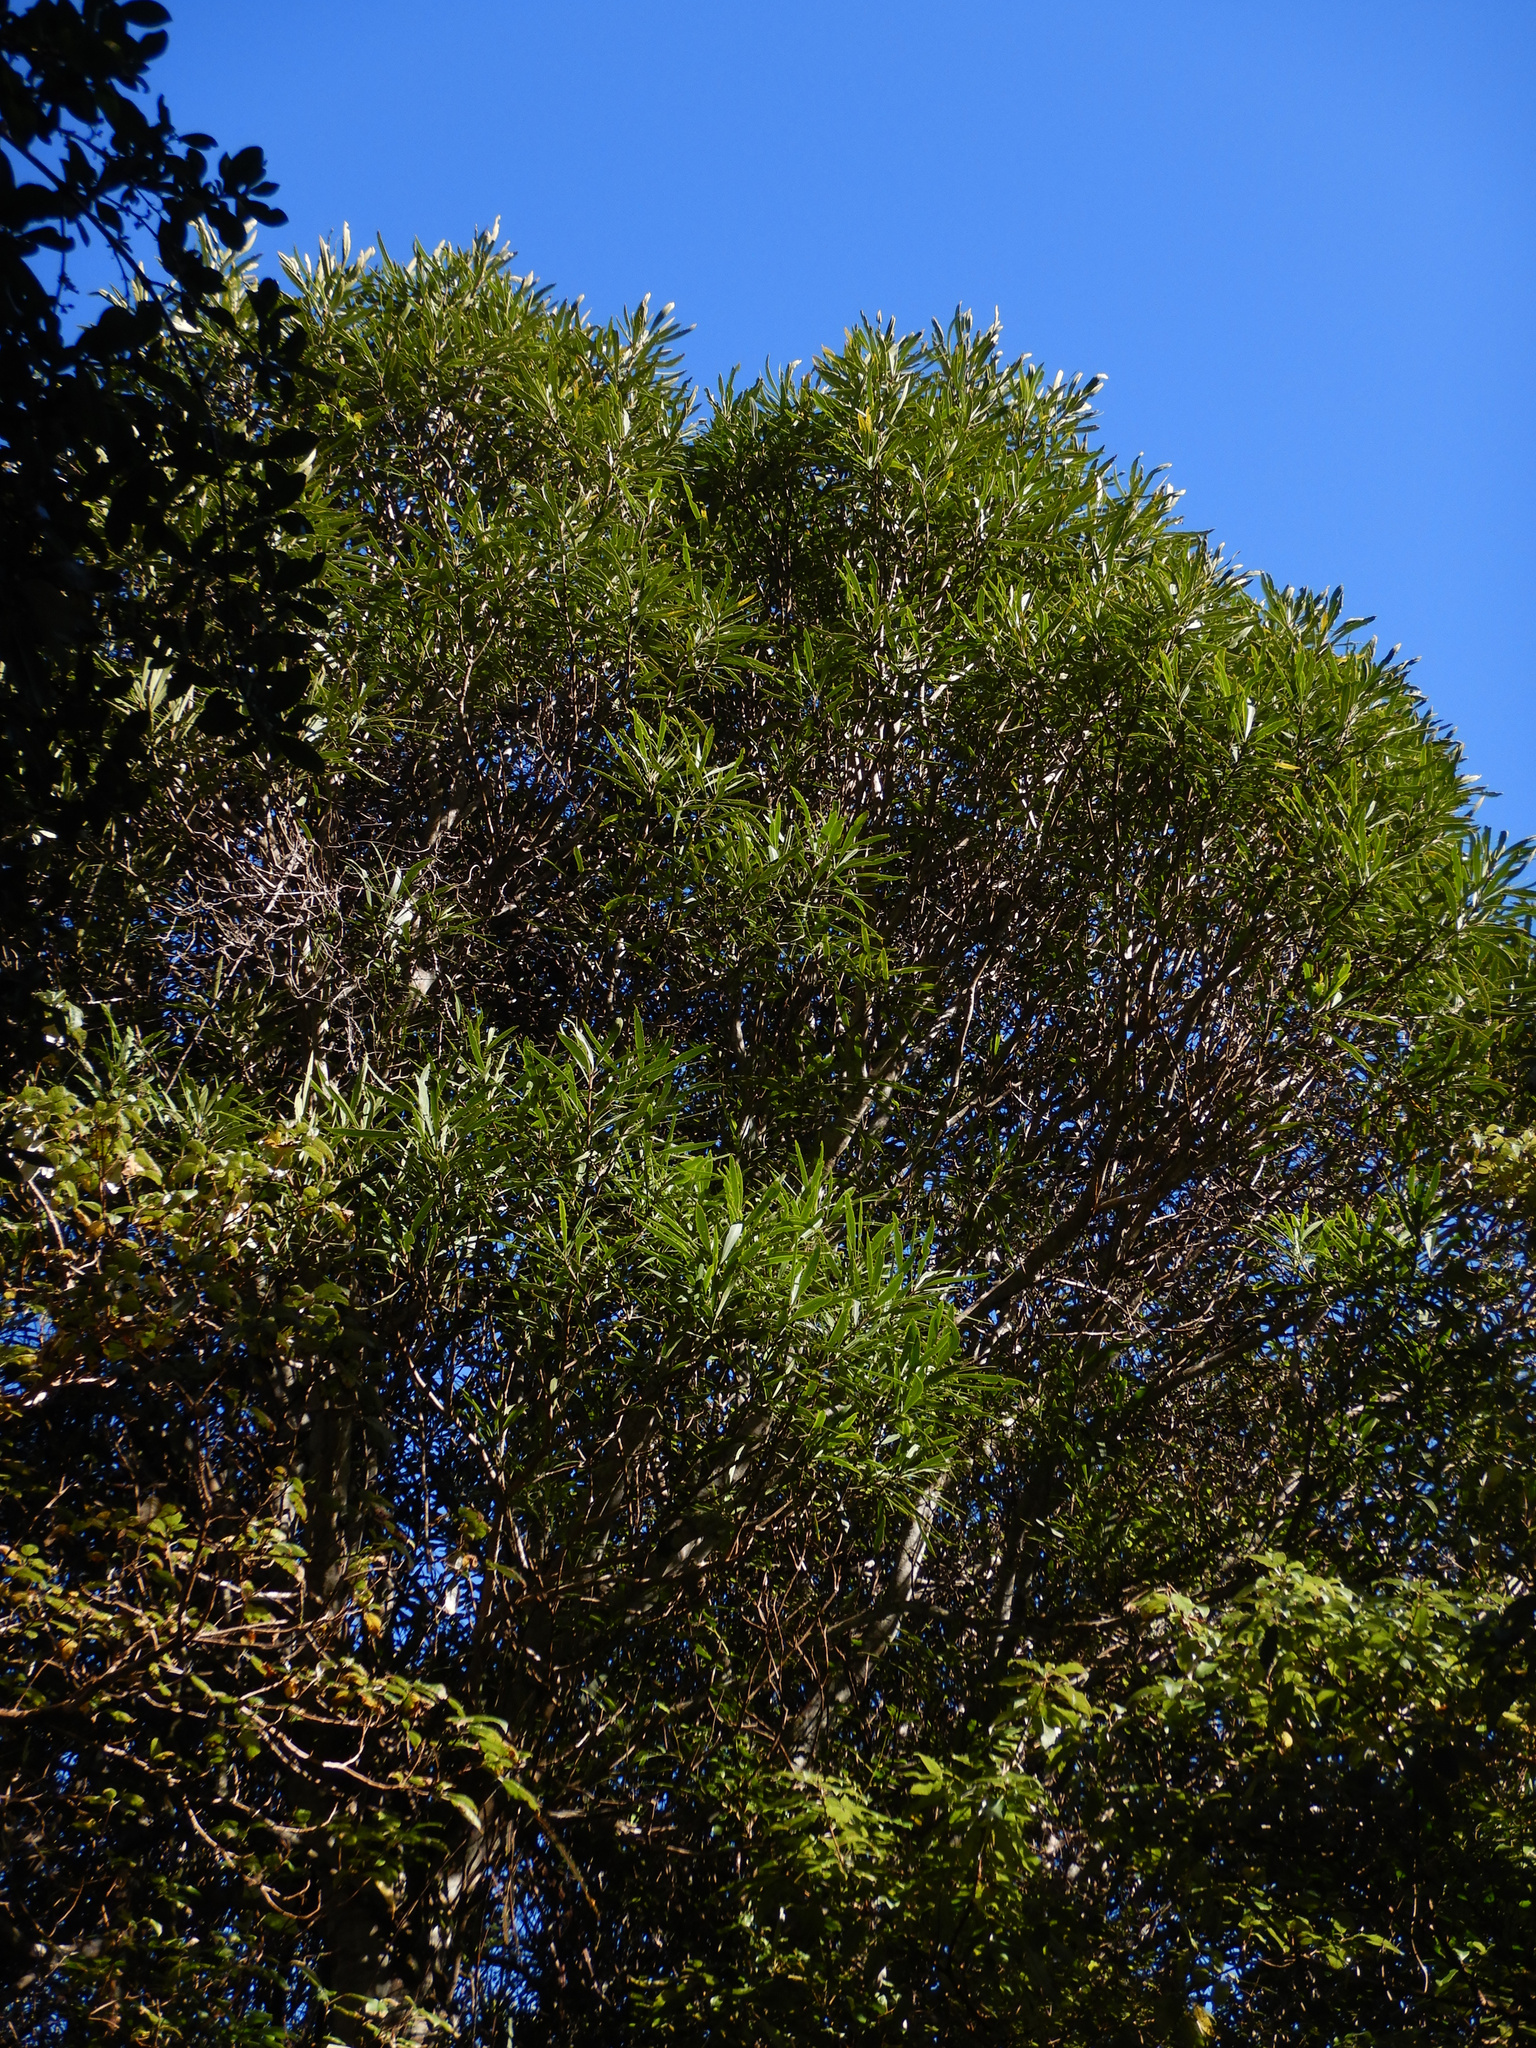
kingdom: Plantae
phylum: Tracheophyta
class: Magnoliopsida
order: Apiales
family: Araliaceae
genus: Pseudopanax
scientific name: Pseudopanax crassifolius
